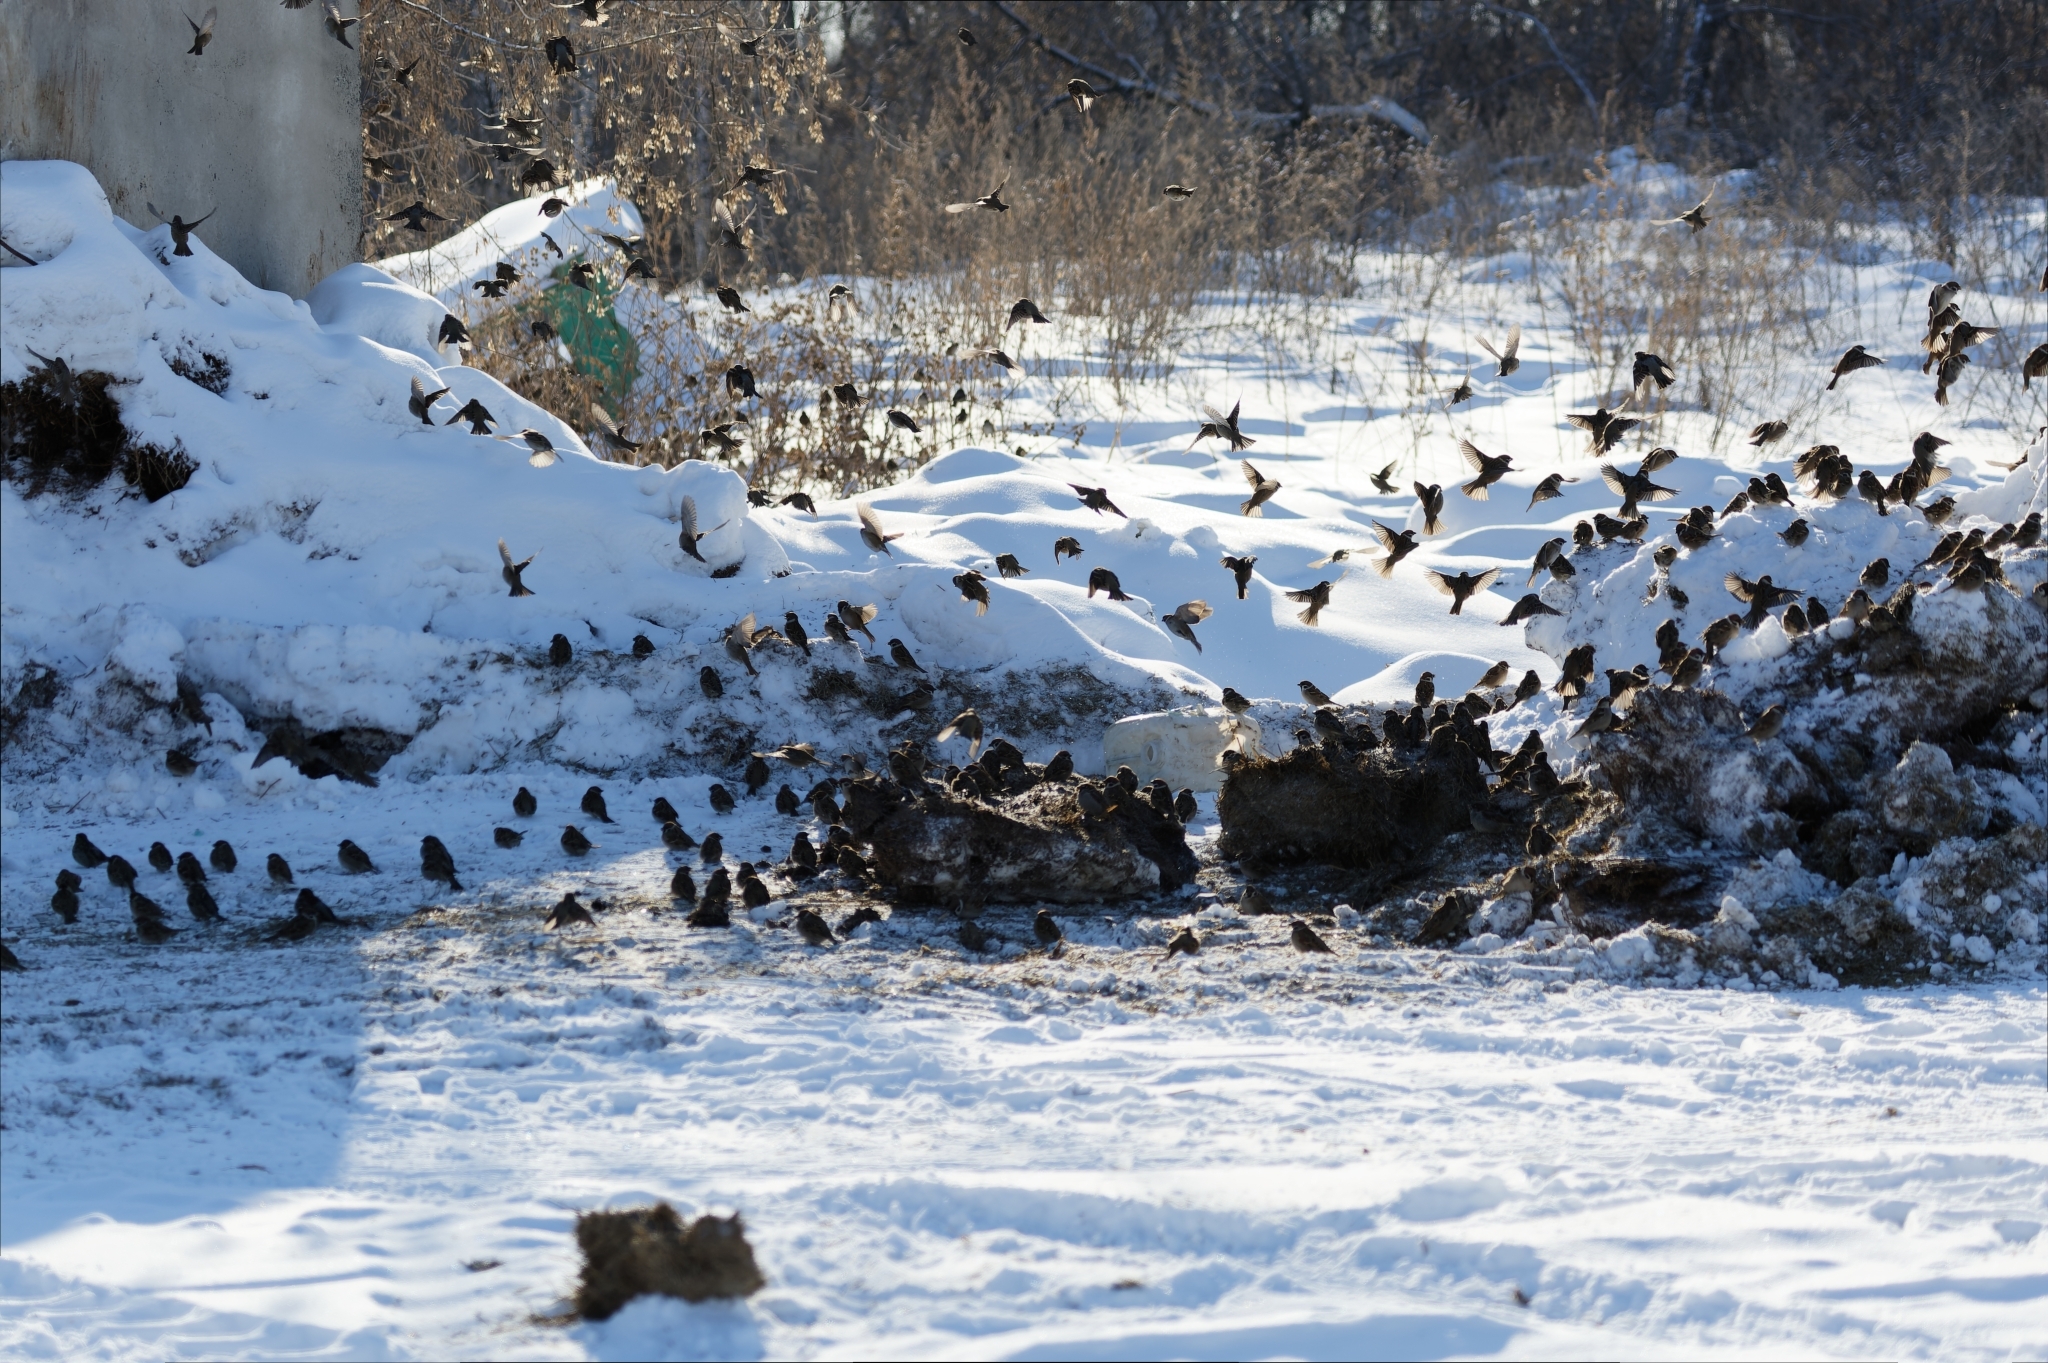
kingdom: Animalia
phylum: Chordata
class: Aves
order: Passeriformes
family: Passeridae
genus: Passer
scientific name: Passer montanus
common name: Eurasian tree sparrow
